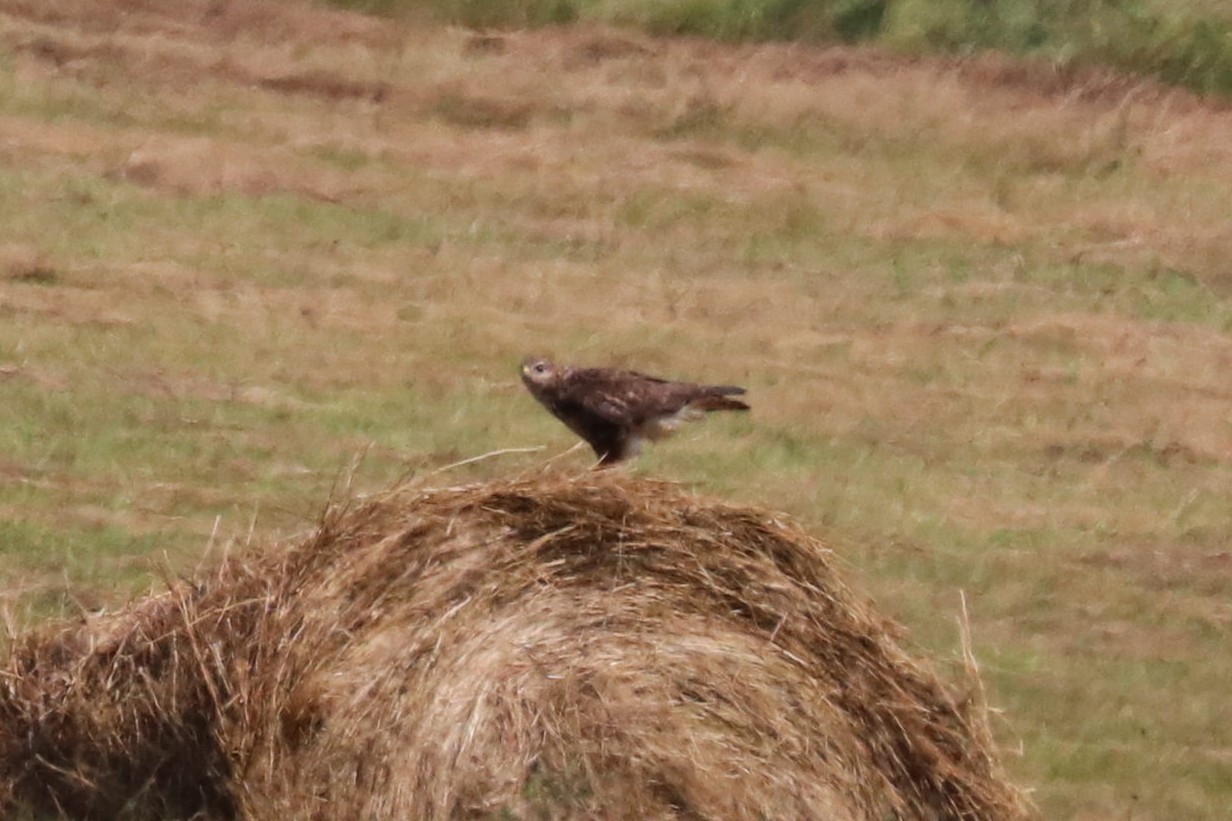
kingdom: Animalia
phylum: Chordata
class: Aves
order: Accipitriformes
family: Accipitridae
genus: Buteo
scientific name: Buteo buteo
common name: Common buzzard
